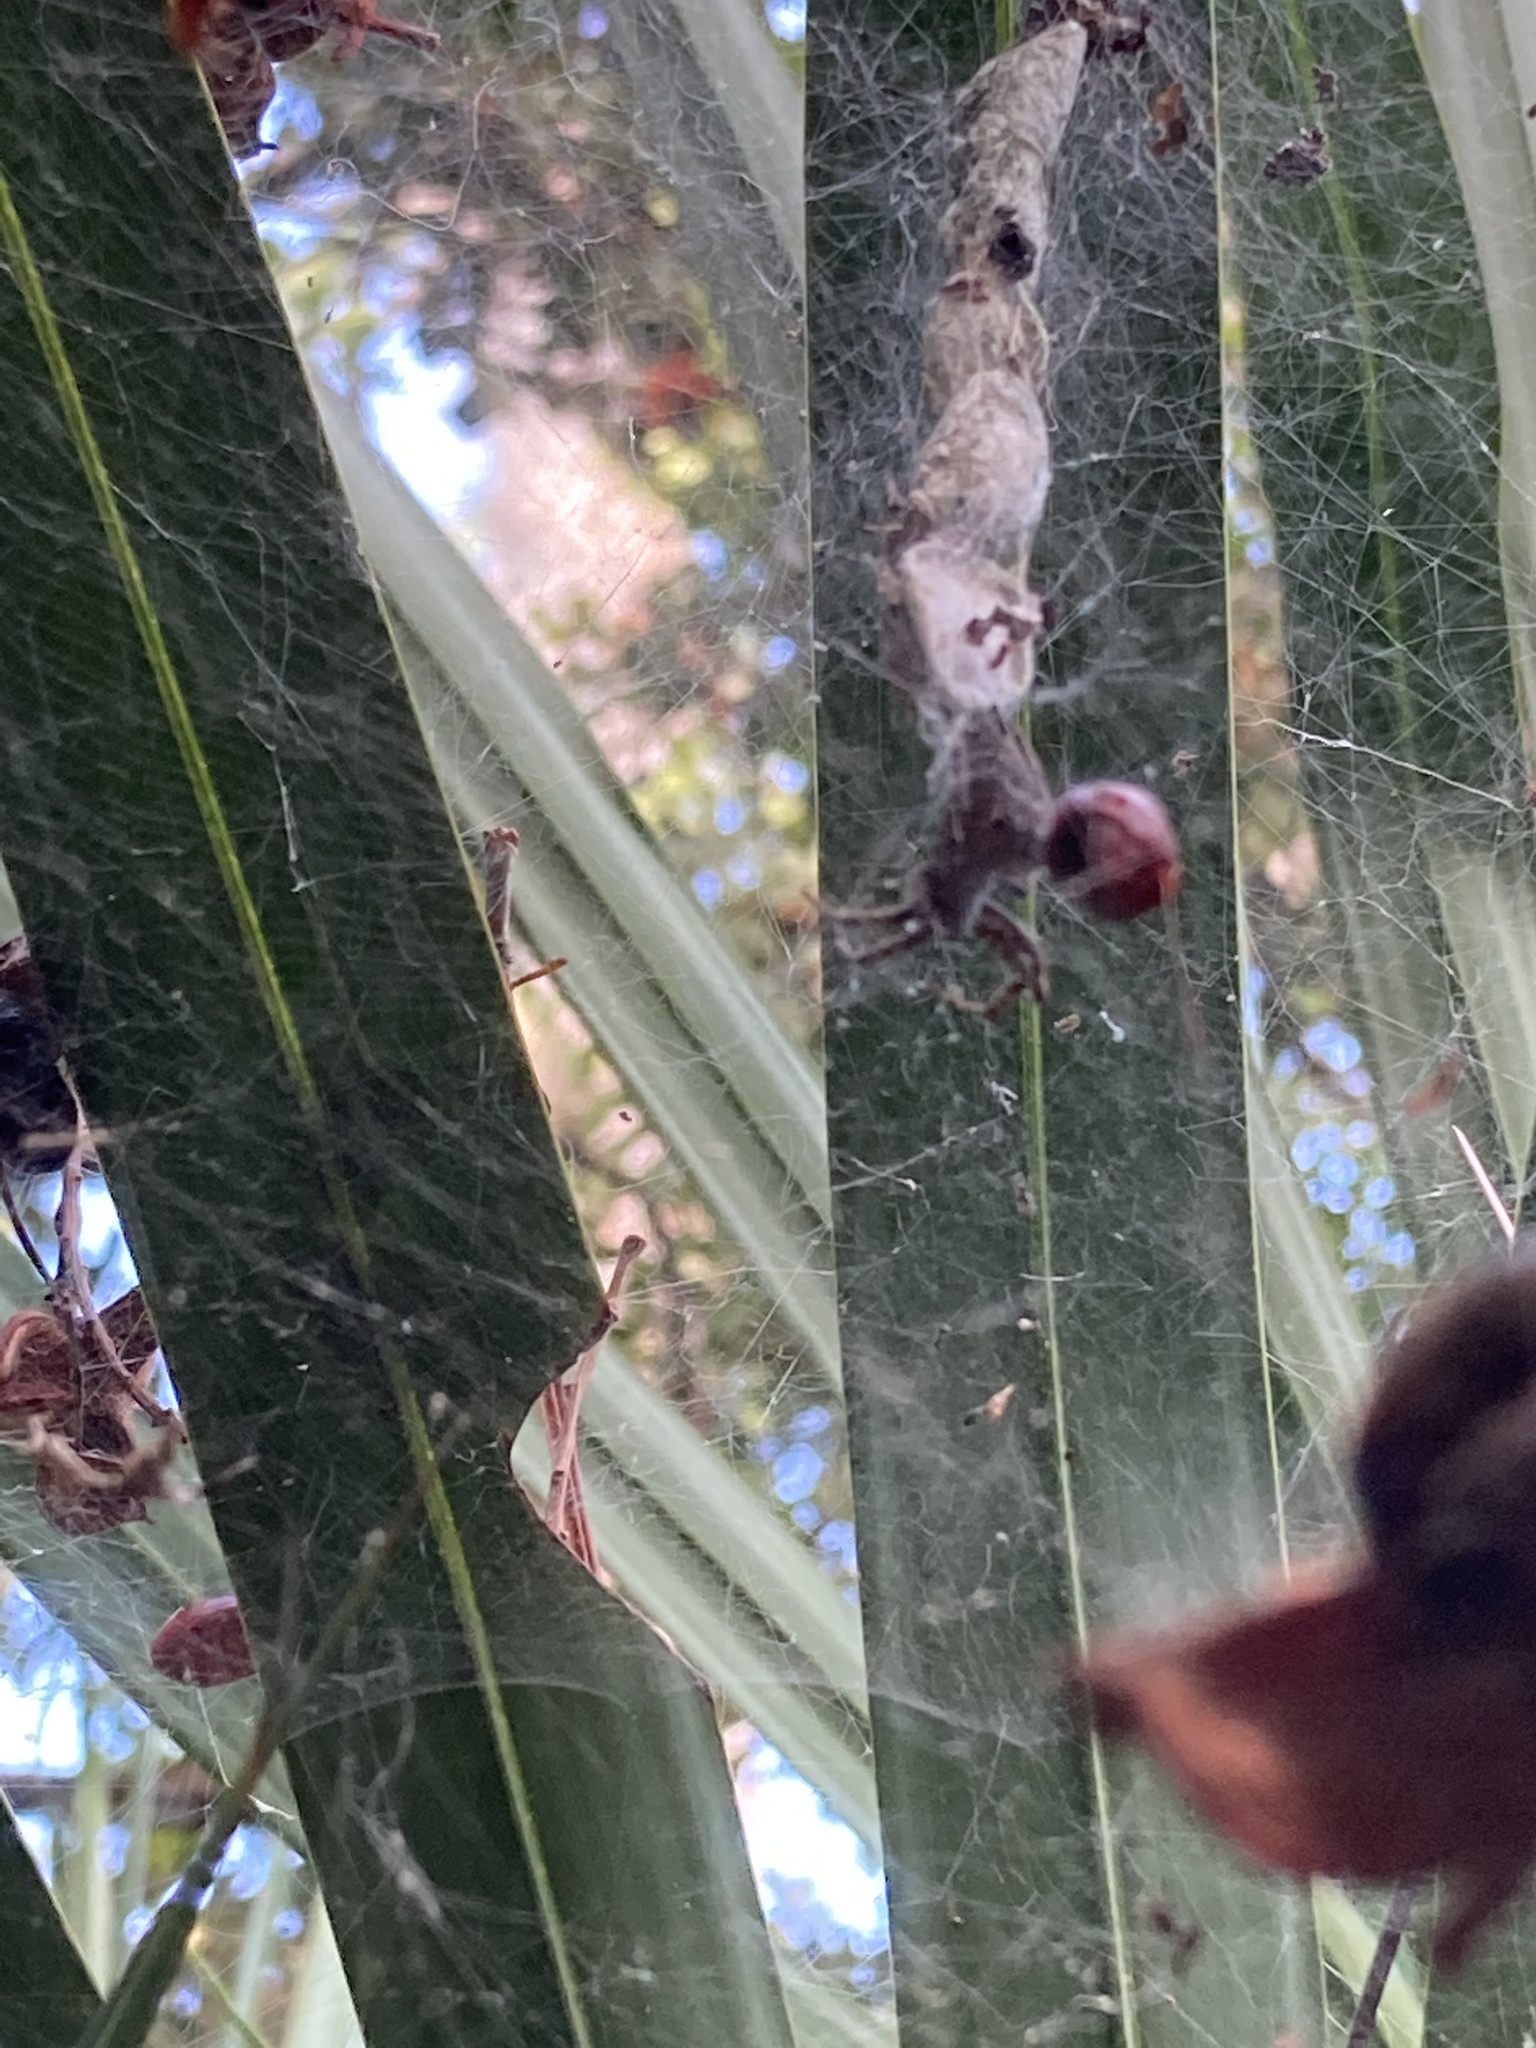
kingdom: Animalia
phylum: Arthropoda
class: Arachnida
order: Araneae
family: Araneidae
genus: Cyrtophora
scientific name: Cyrtophora citricola
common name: Orb weavers
